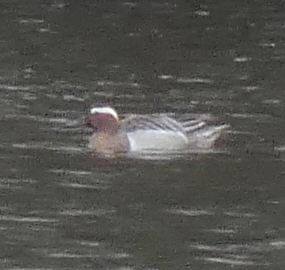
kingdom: Animalia
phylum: Chordata
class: Aves
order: Anseriformes
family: Anatidae
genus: Spatula
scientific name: Spatula querquedula
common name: Garganey
